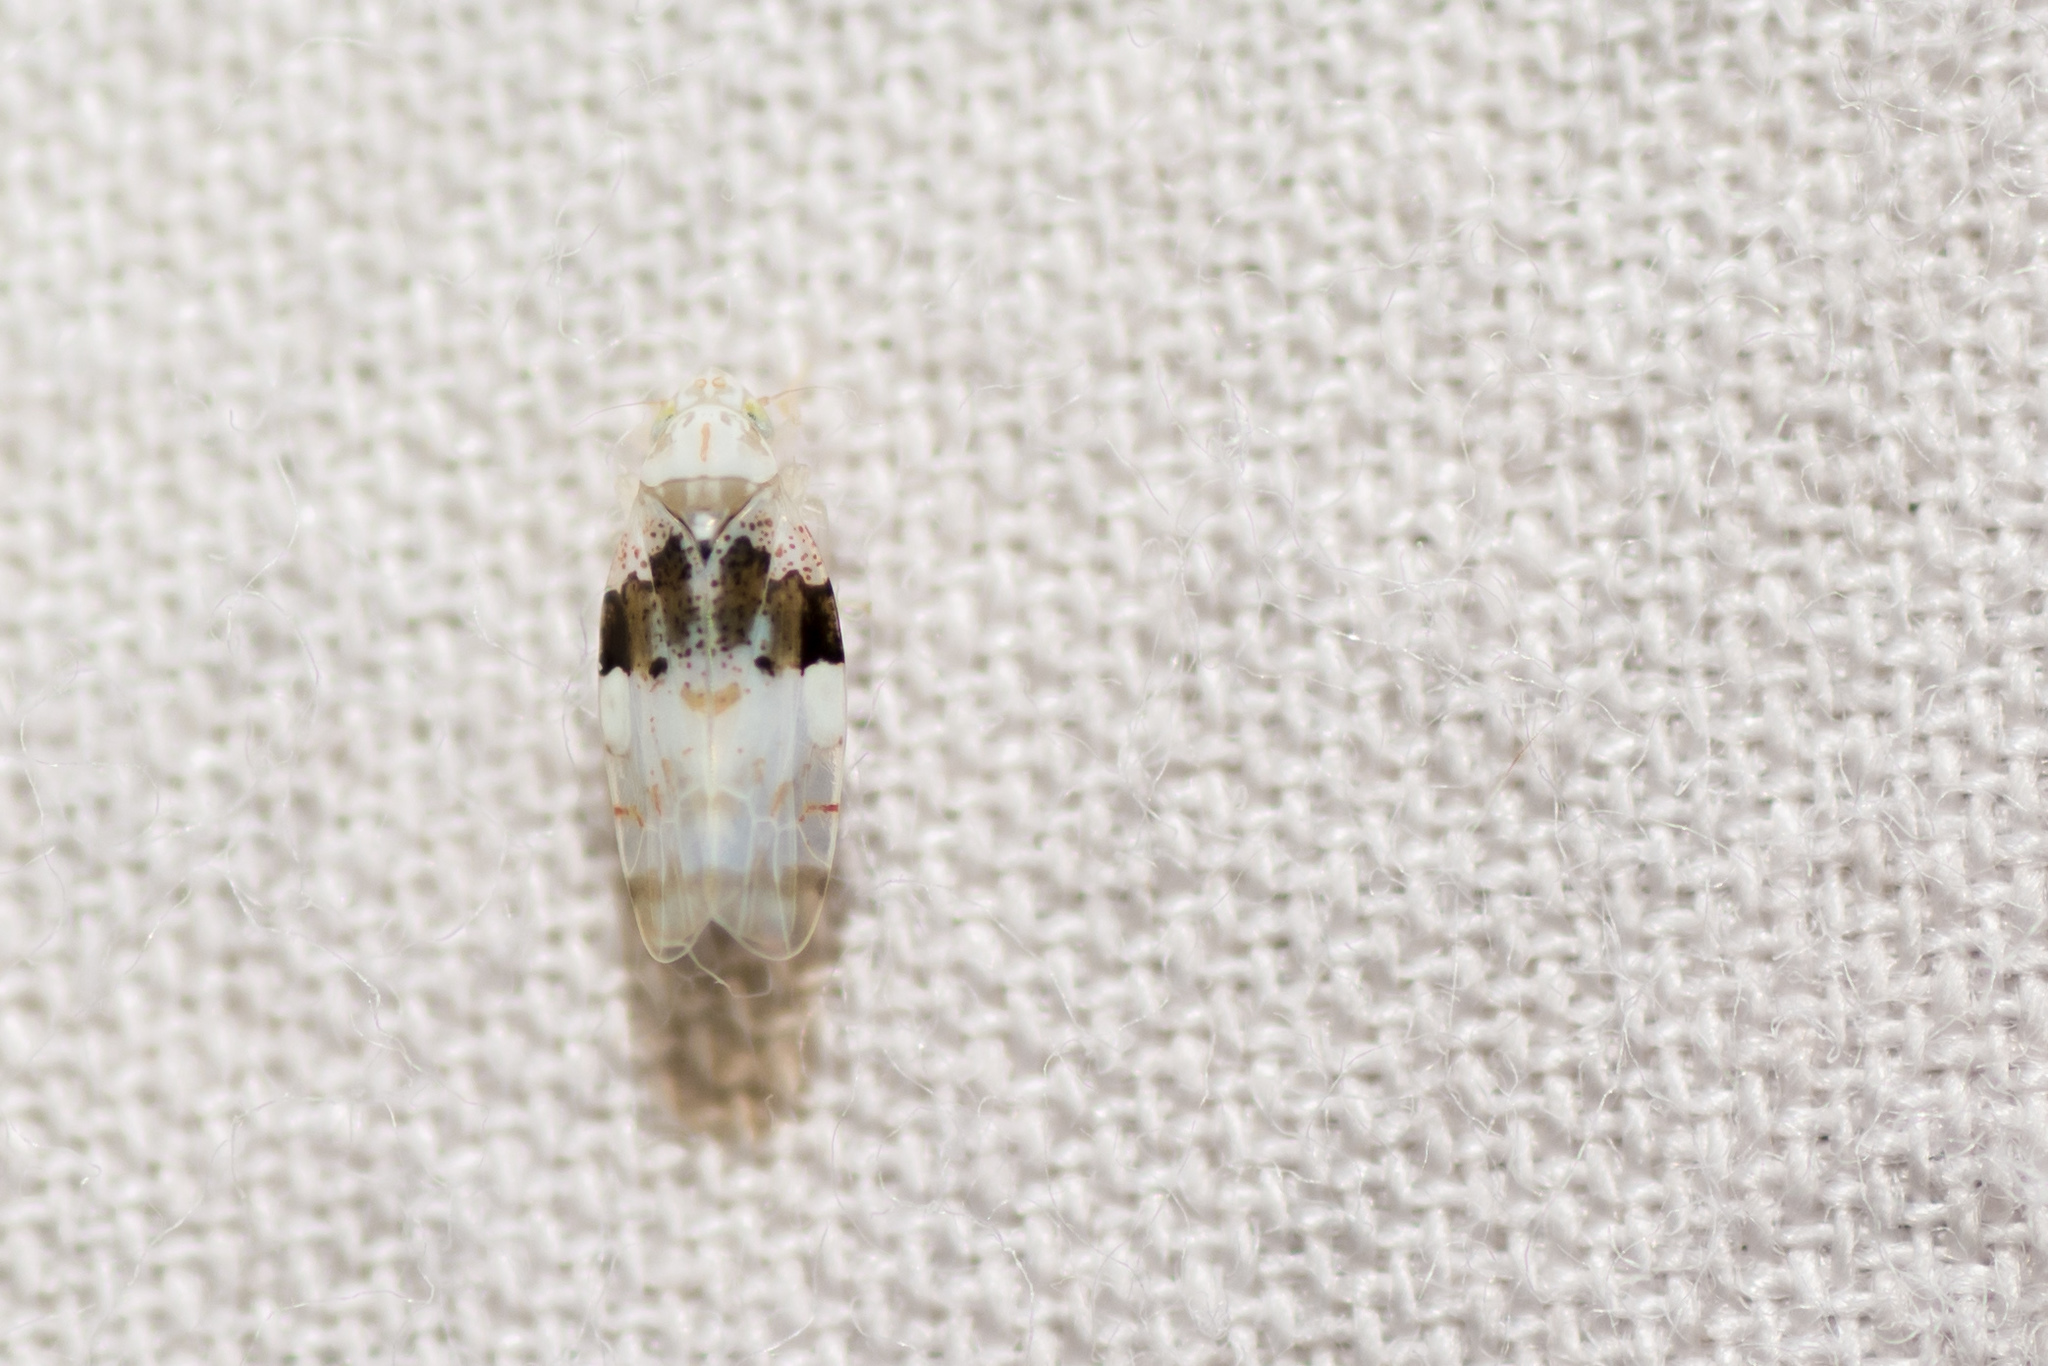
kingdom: Animalia
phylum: Arthropoda
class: Insecta
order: Hemiptera
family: Cicadellidae
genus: Hymetta
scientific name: Hymetta anthisma
